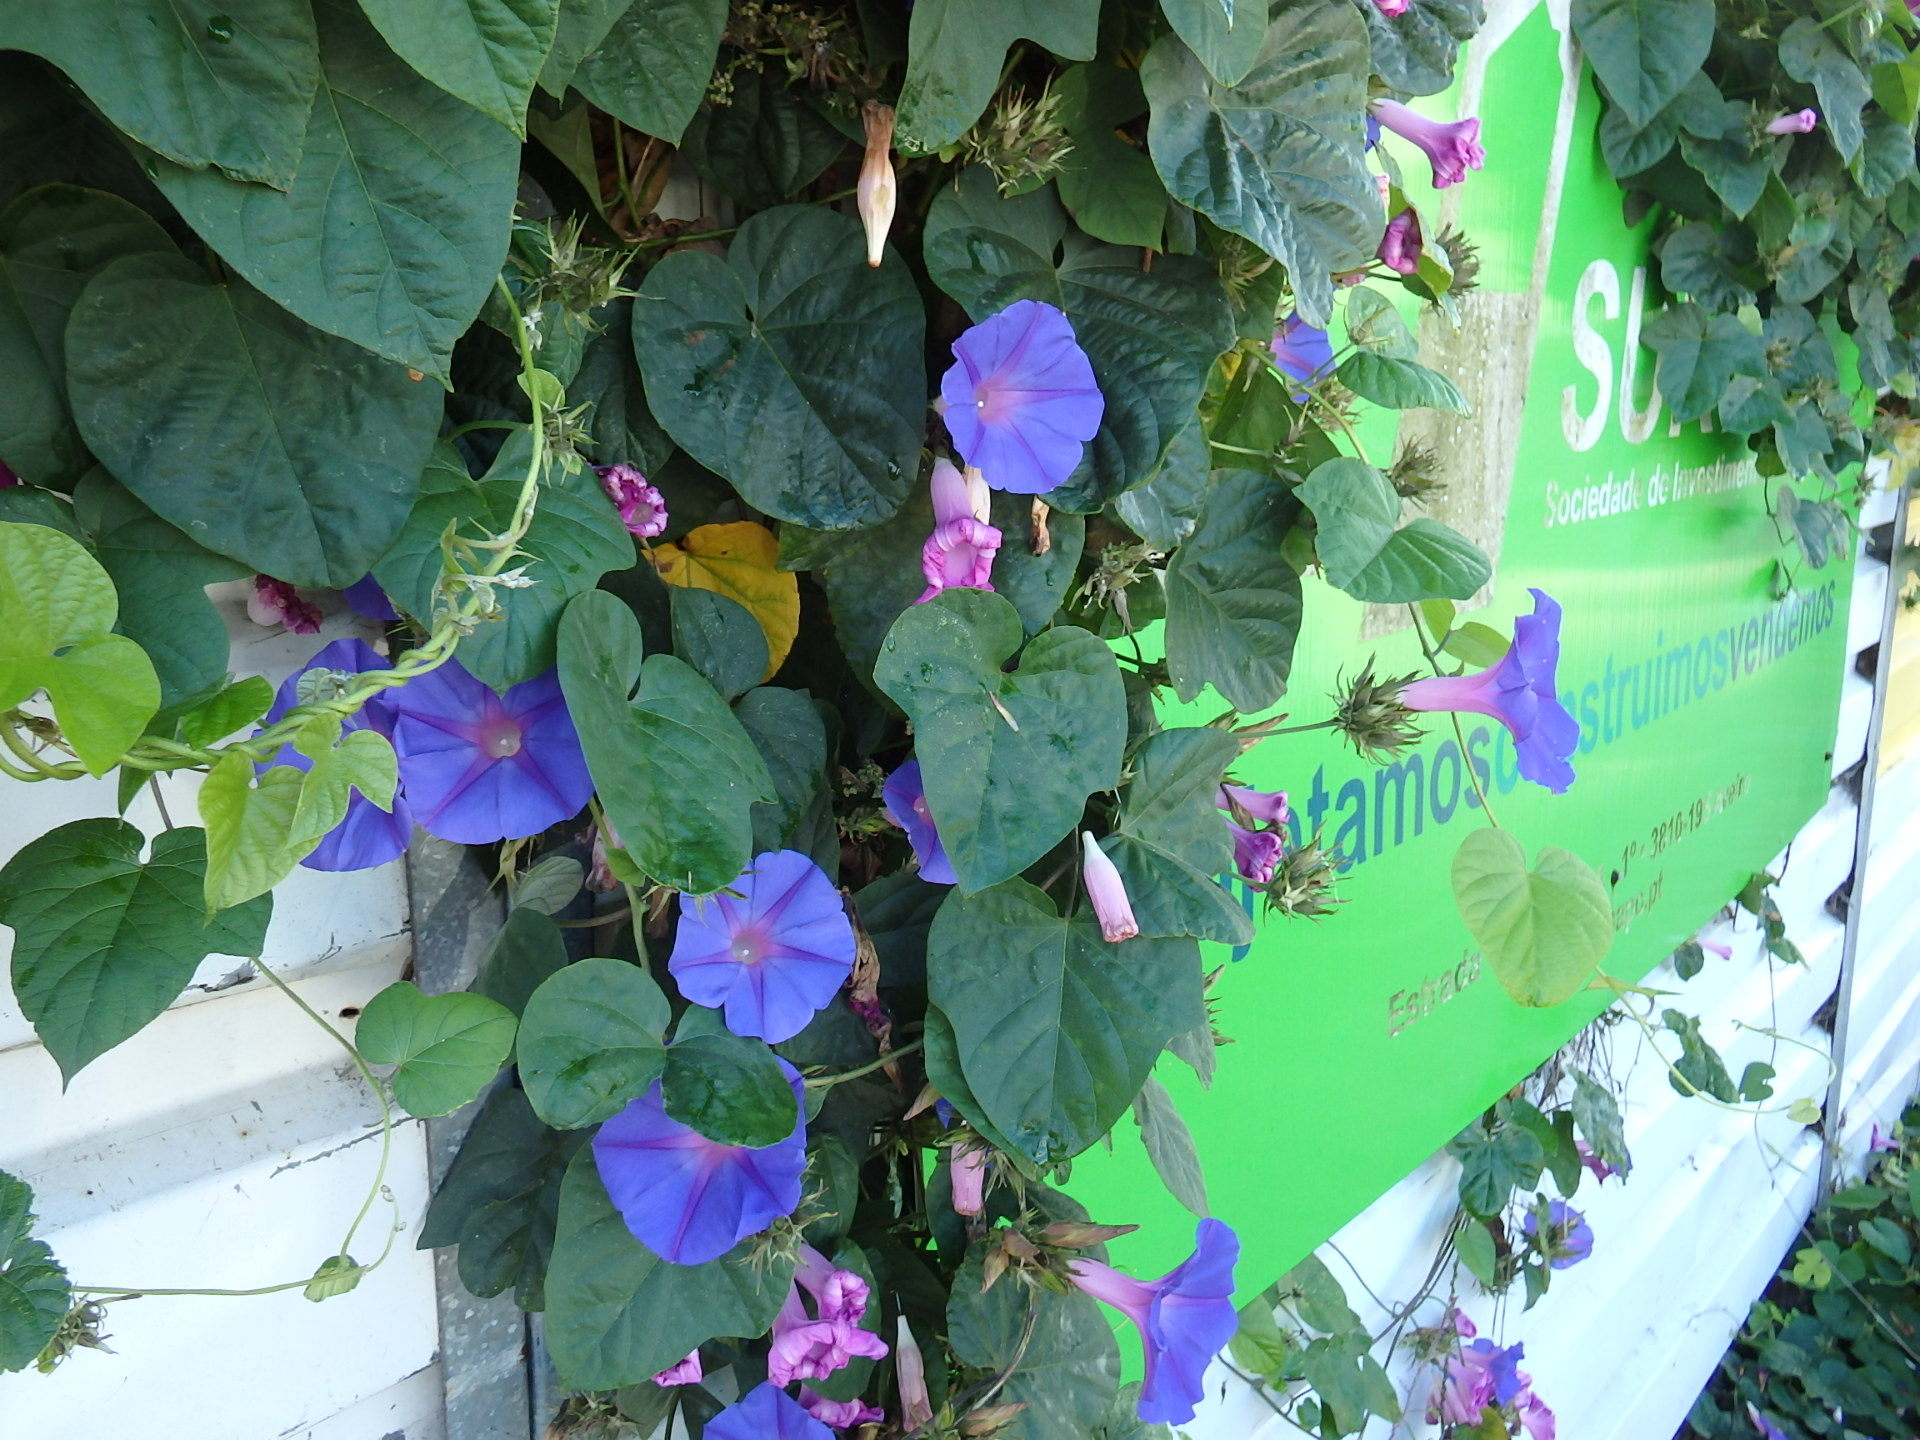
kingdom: Plantae
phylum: Tracheophyta
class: Magnoliopsida
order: Solanales
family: Convolvulaceae
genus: Ipomoea
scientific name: Ipomoea indica
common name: Blue dawnflower
